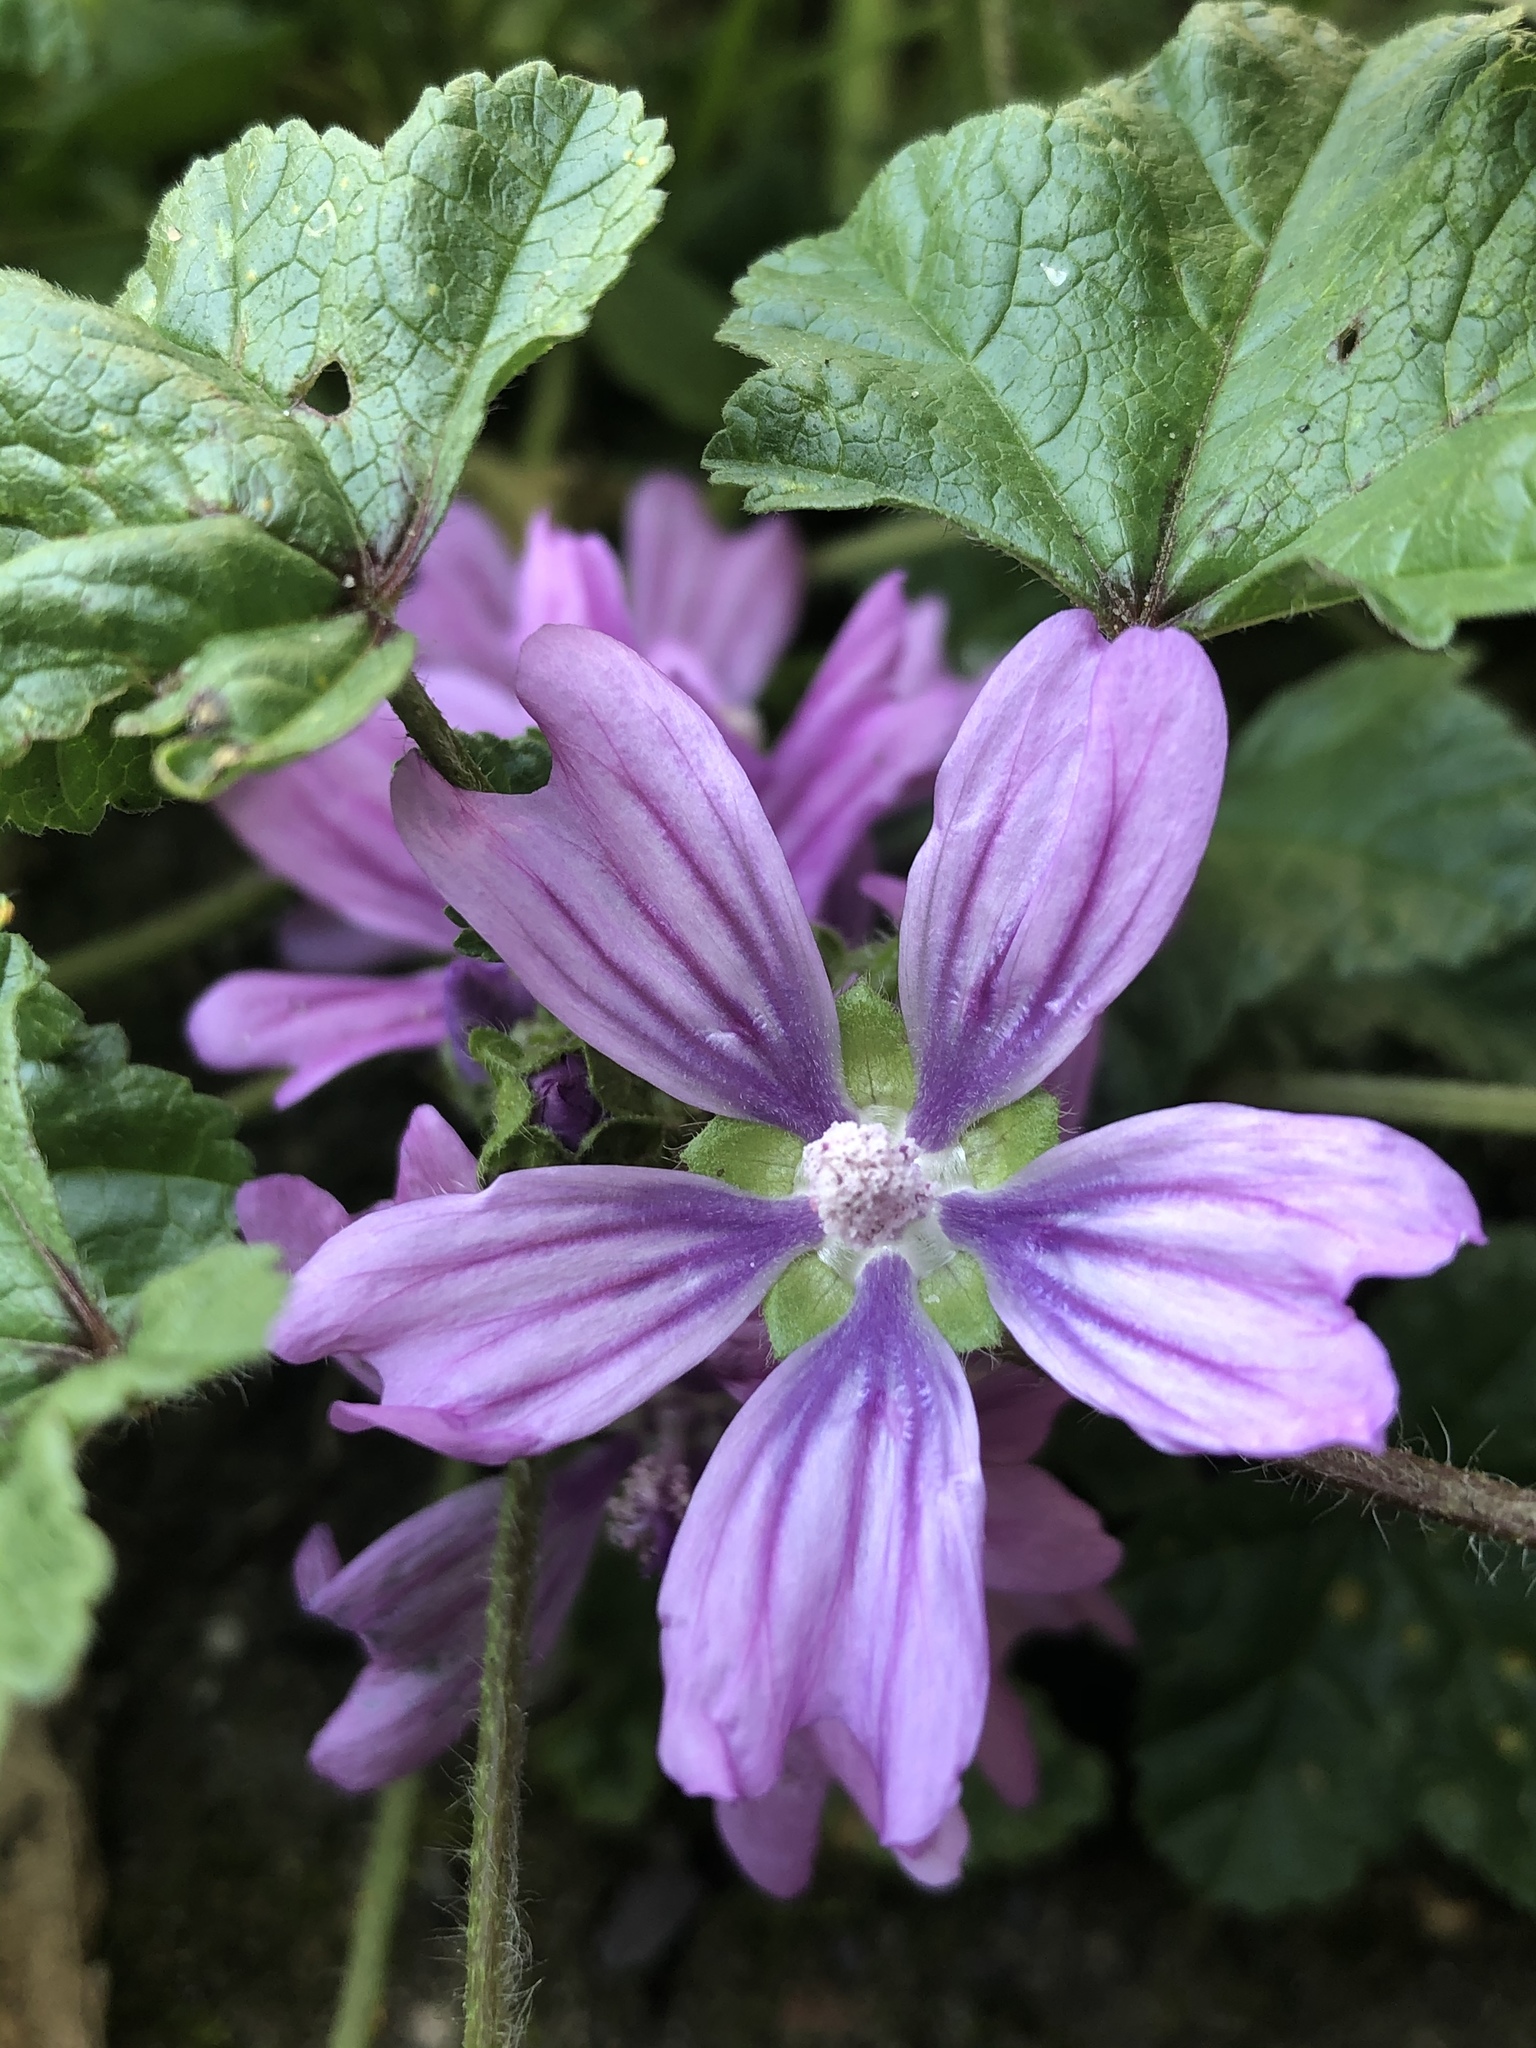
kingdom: Plantae
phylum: Tracheophyta
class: Magnoliopsida
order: Malvales
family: Malvaceae
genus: Malva
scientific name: Malva sylvestris
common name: Common mallow
